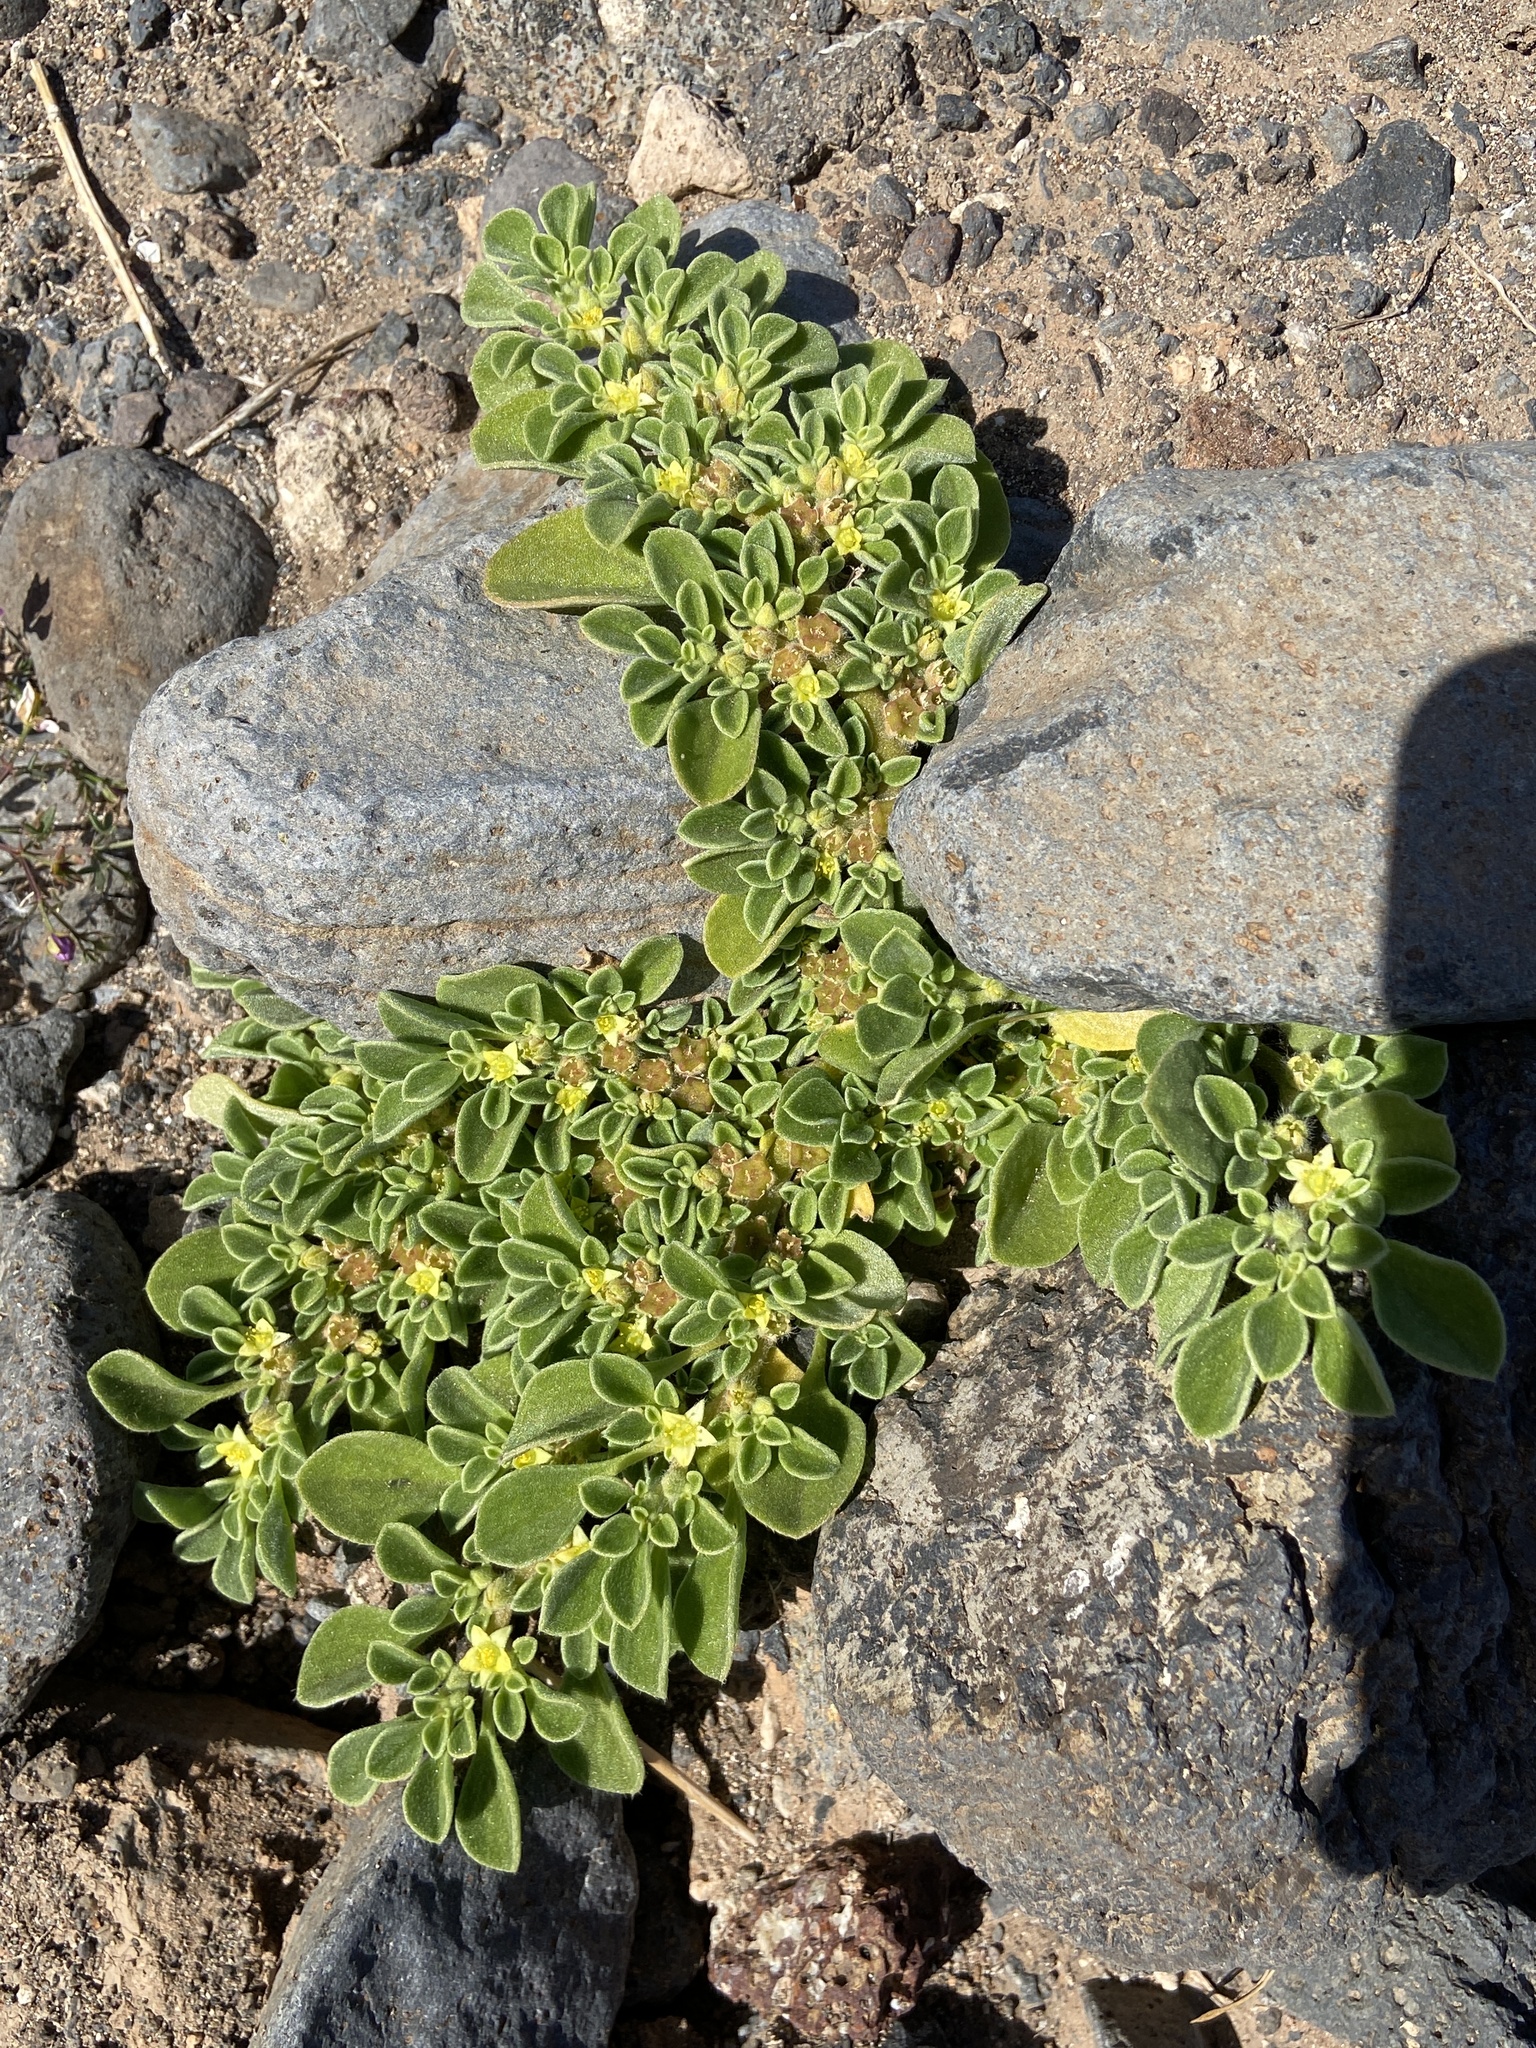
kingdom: Plantae
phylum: Tracheophyta
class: Magnoliopsida
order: Caryophyllales
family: Aizoaceae
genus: Aizoon
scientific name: Aizoon canariense
